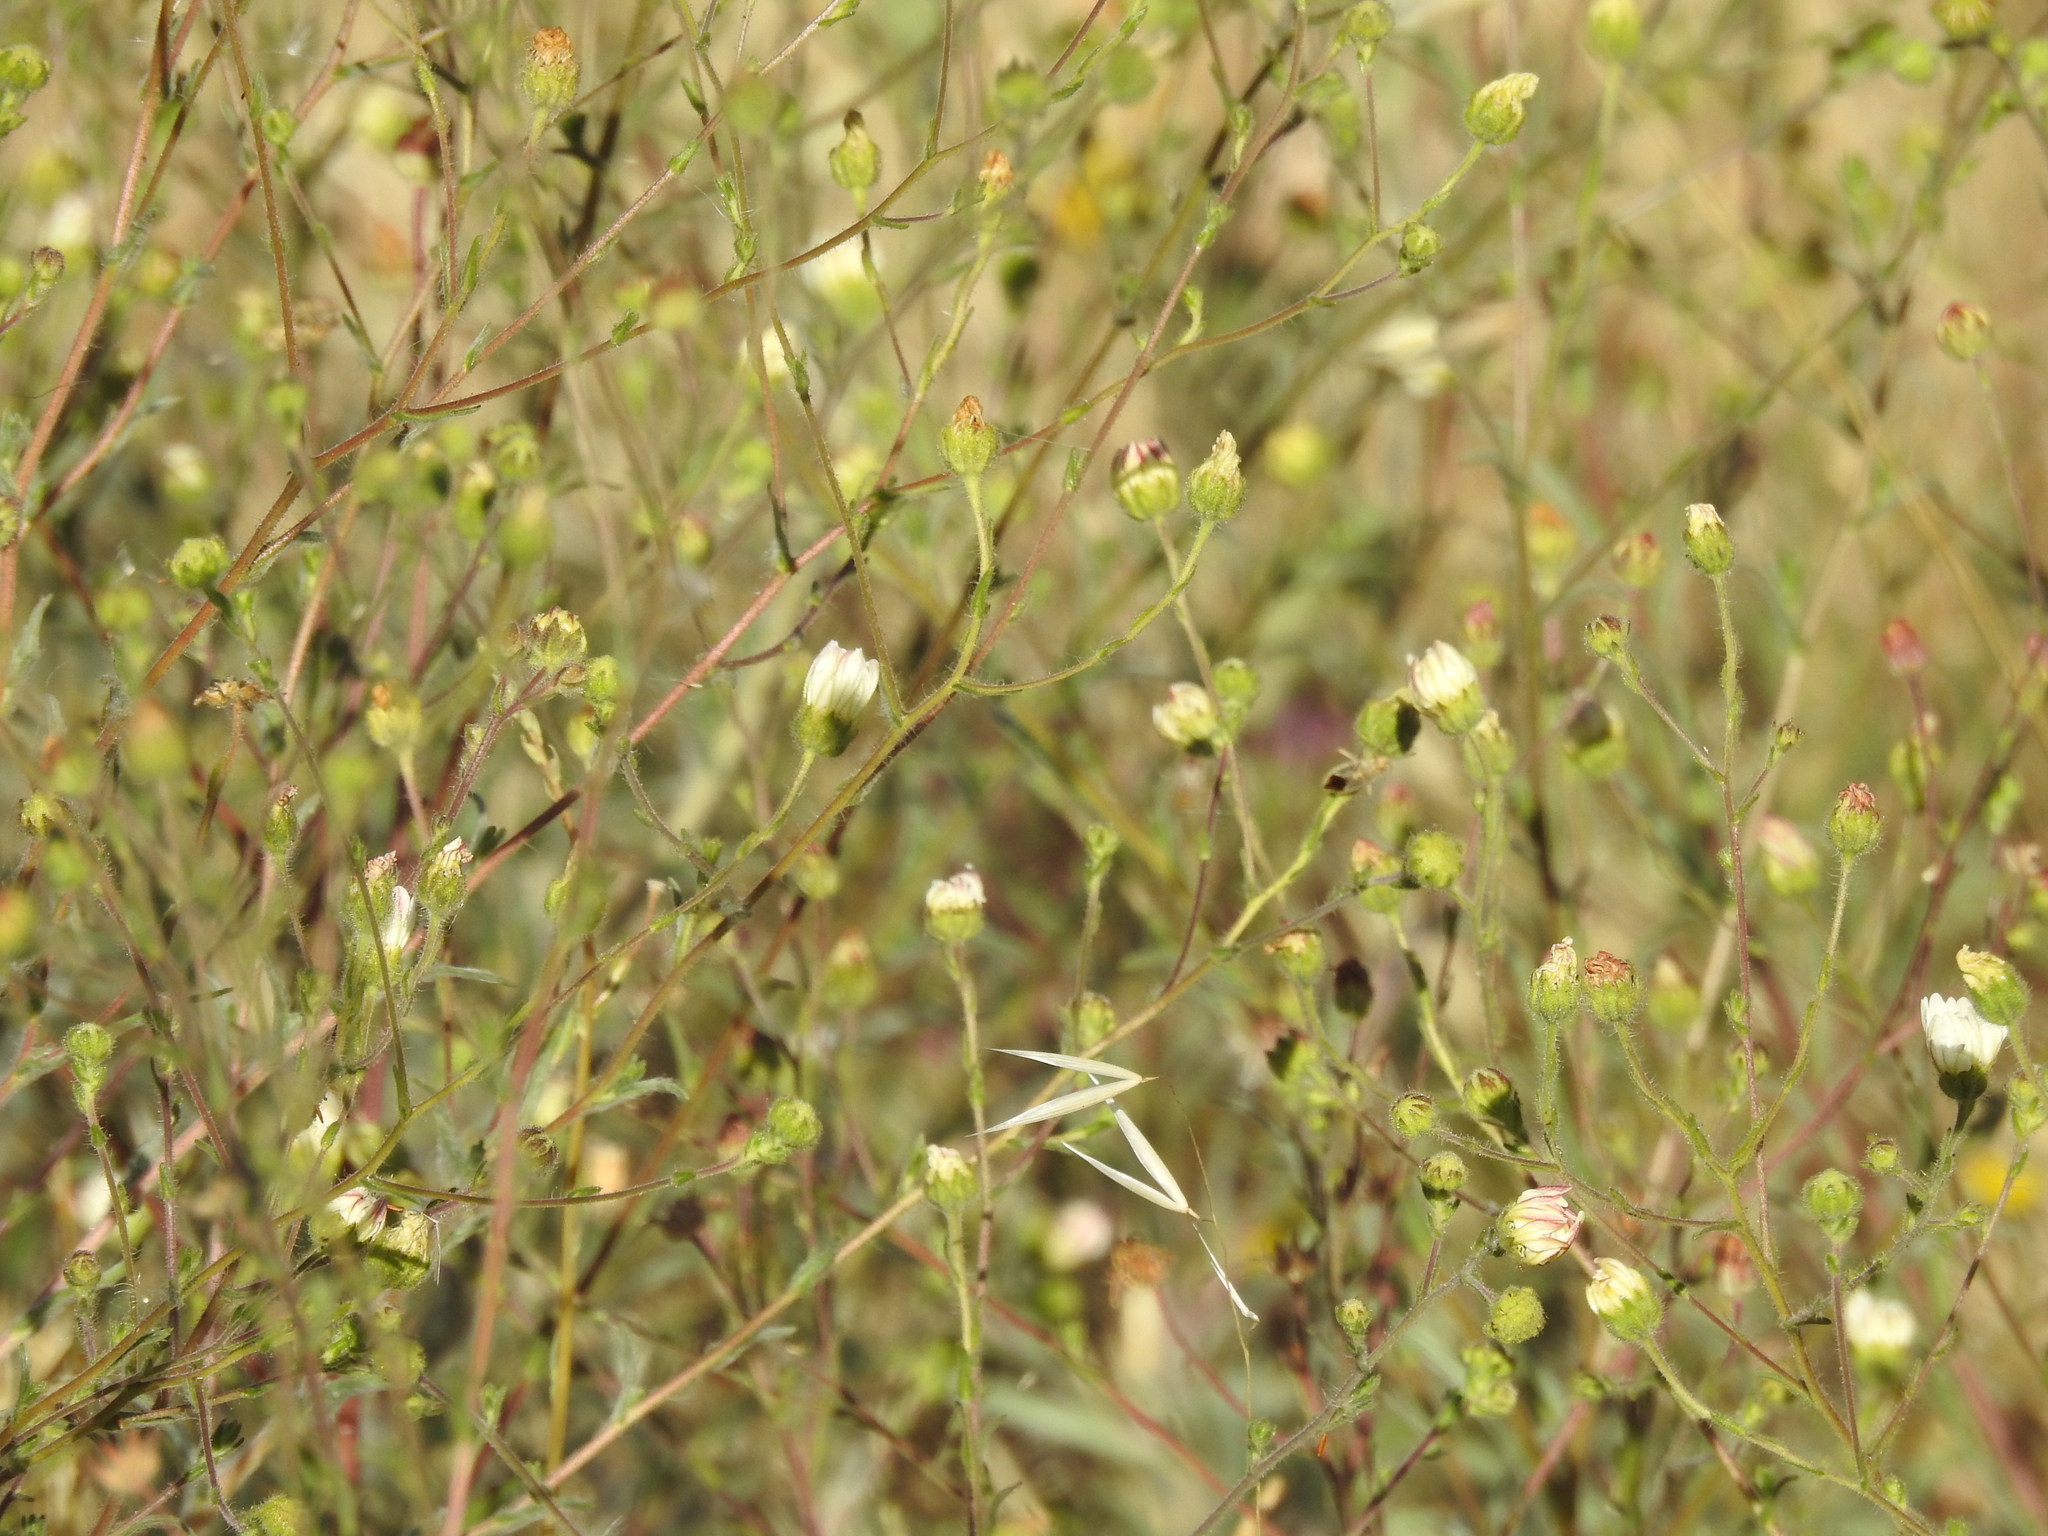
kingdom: Plantae
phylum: Tracheophyta
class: Magnoliopsida
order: Asterales
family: Asteraceae
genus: Hemizonia
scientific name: Hemizonia congesta
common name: Hayfield tarweed
